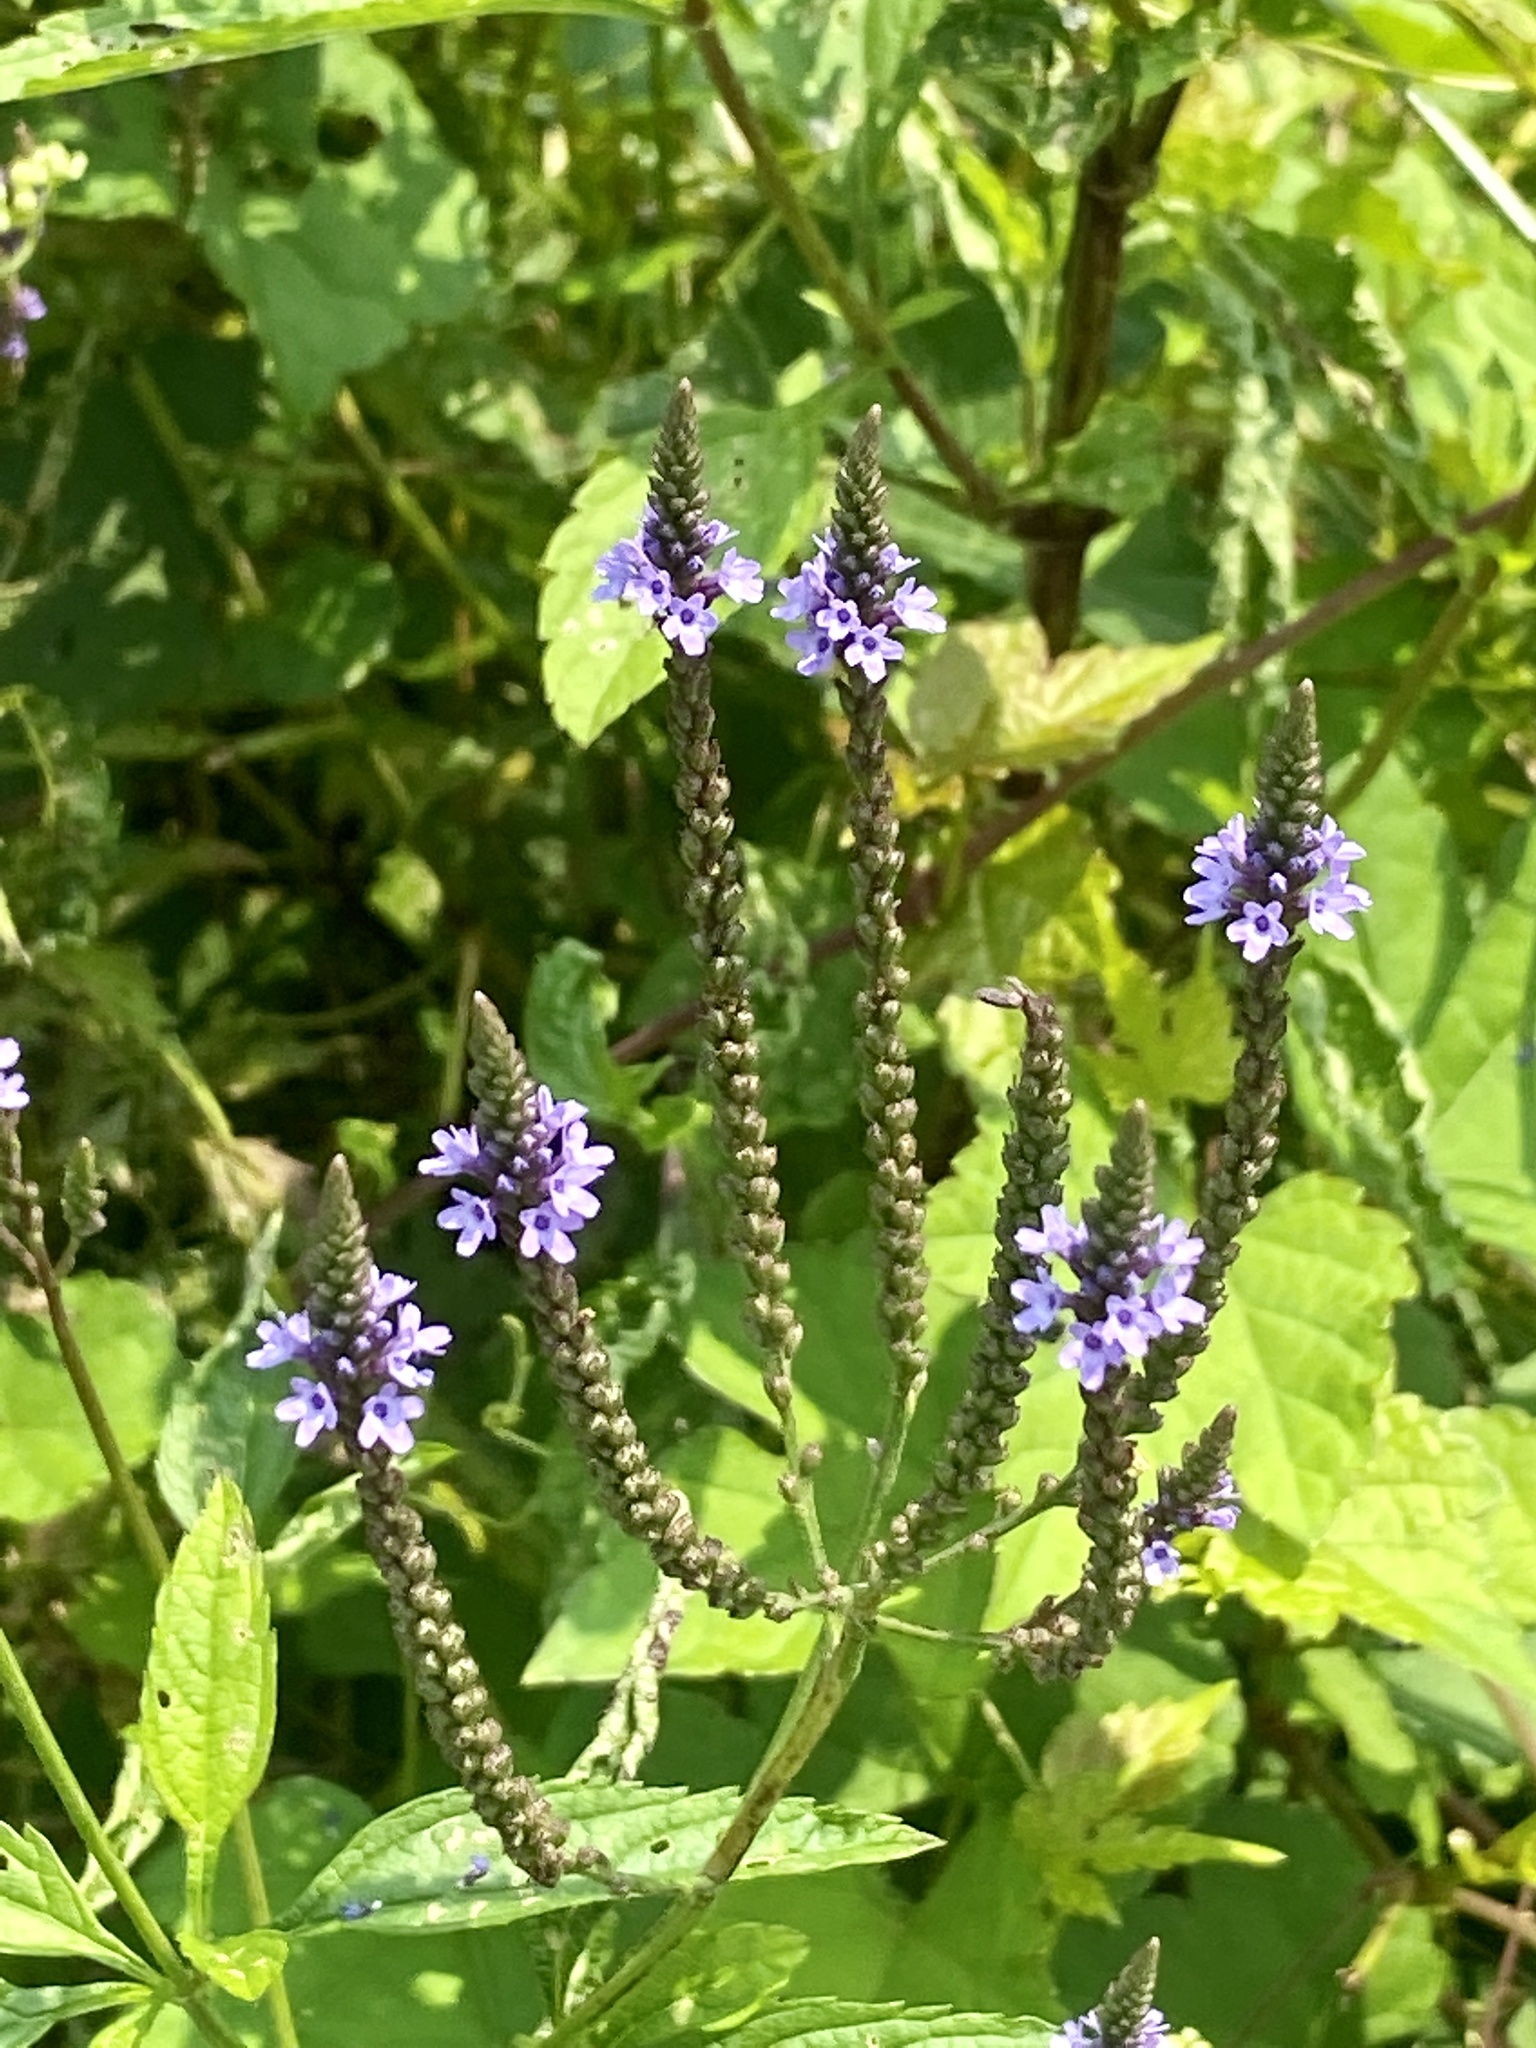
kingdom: Plantae
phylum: Tracheophyta
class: Magnoliopsida
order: Lamiales
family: Verbenaceae
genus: Verbena
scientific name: Verbena hastata
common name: American blue vervain
